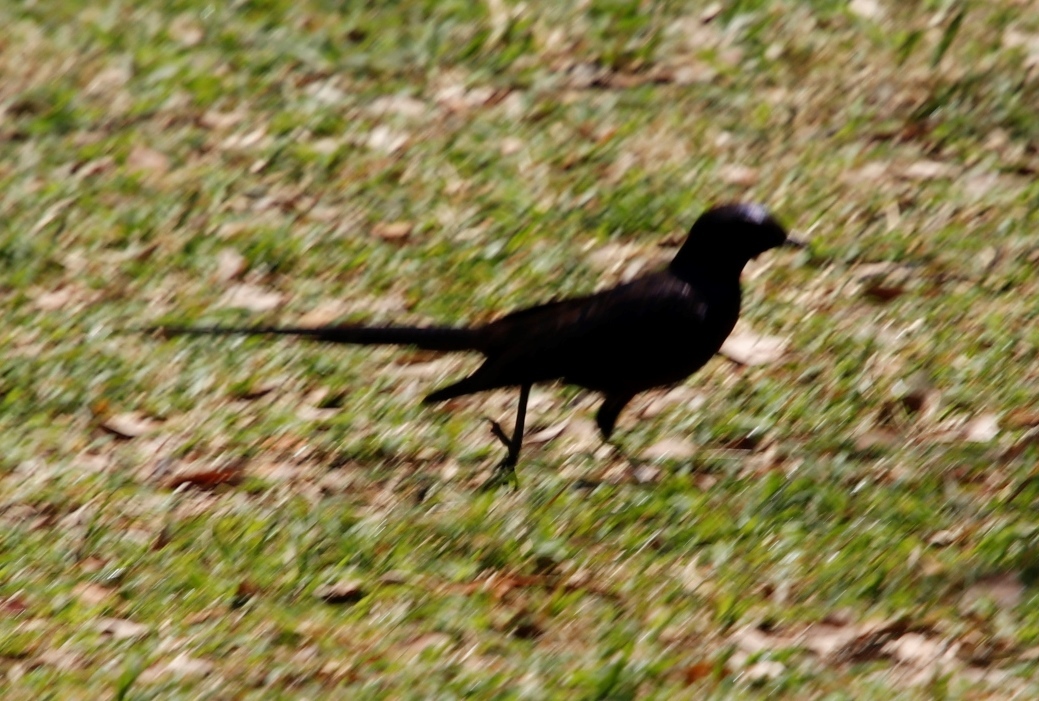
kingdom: Animalia
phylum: Chordata
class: Aves
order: Passeriformes
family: Sturnidae
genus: Lamprotornis
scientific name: Lamprotornis mevesii
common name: Meves's starling
